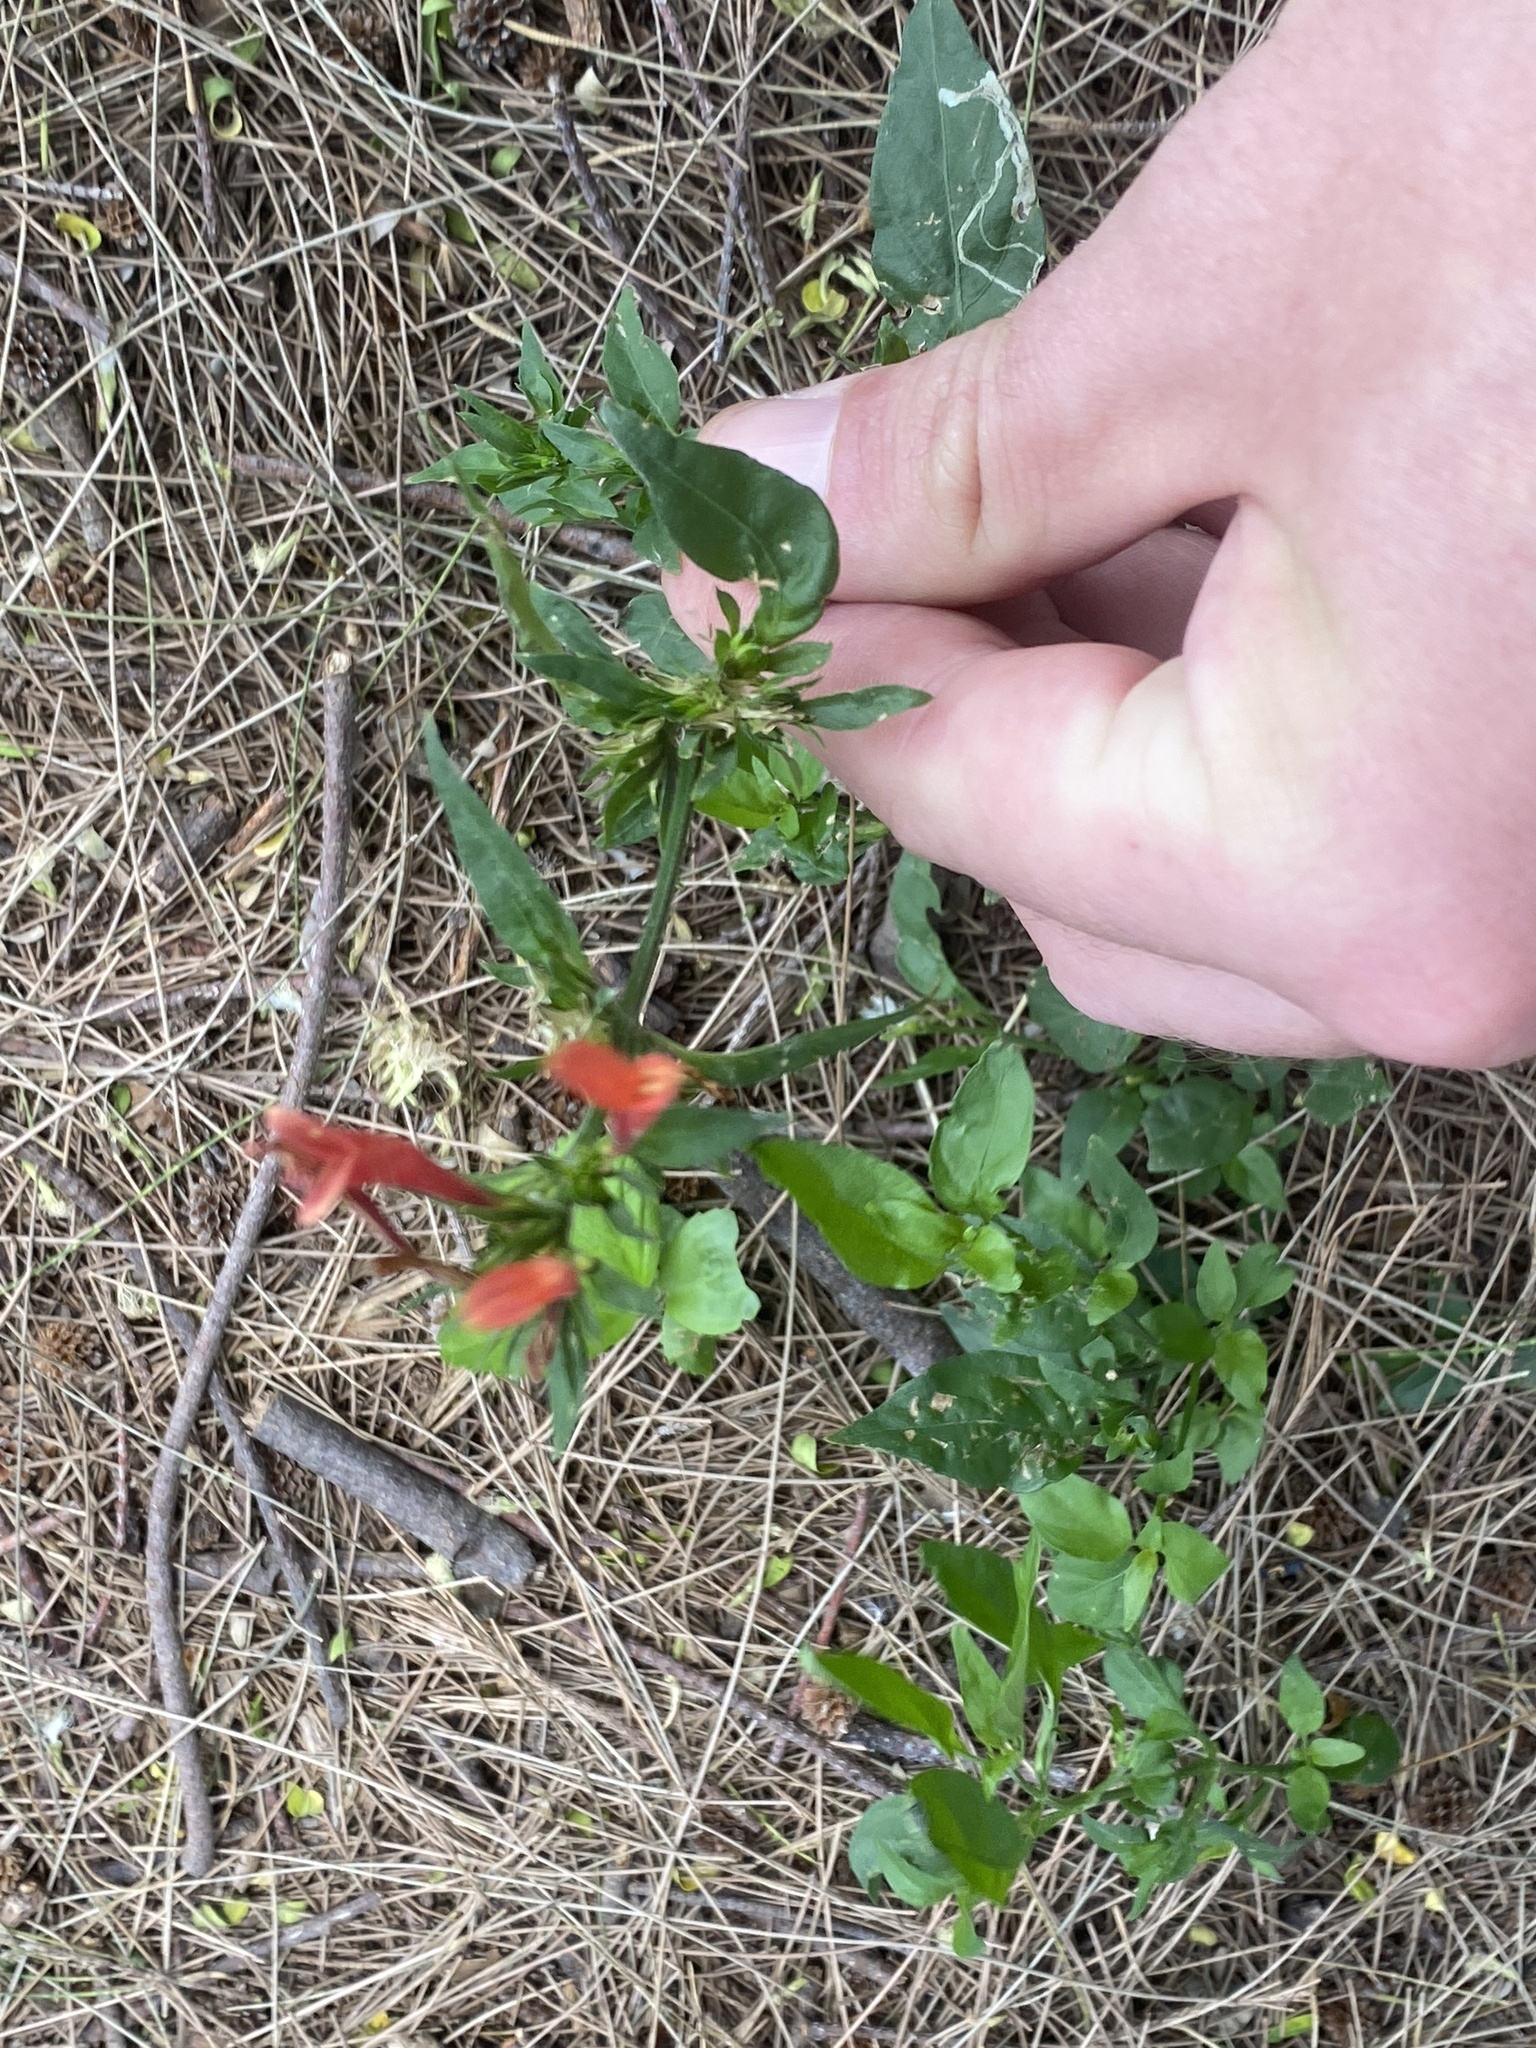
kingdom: Plantae
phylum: Tracheophyta
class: Magnoliopsida
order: Lamiales
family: Acanthaceae
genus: Dicliptera
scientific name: Dicliptera squarrosa
